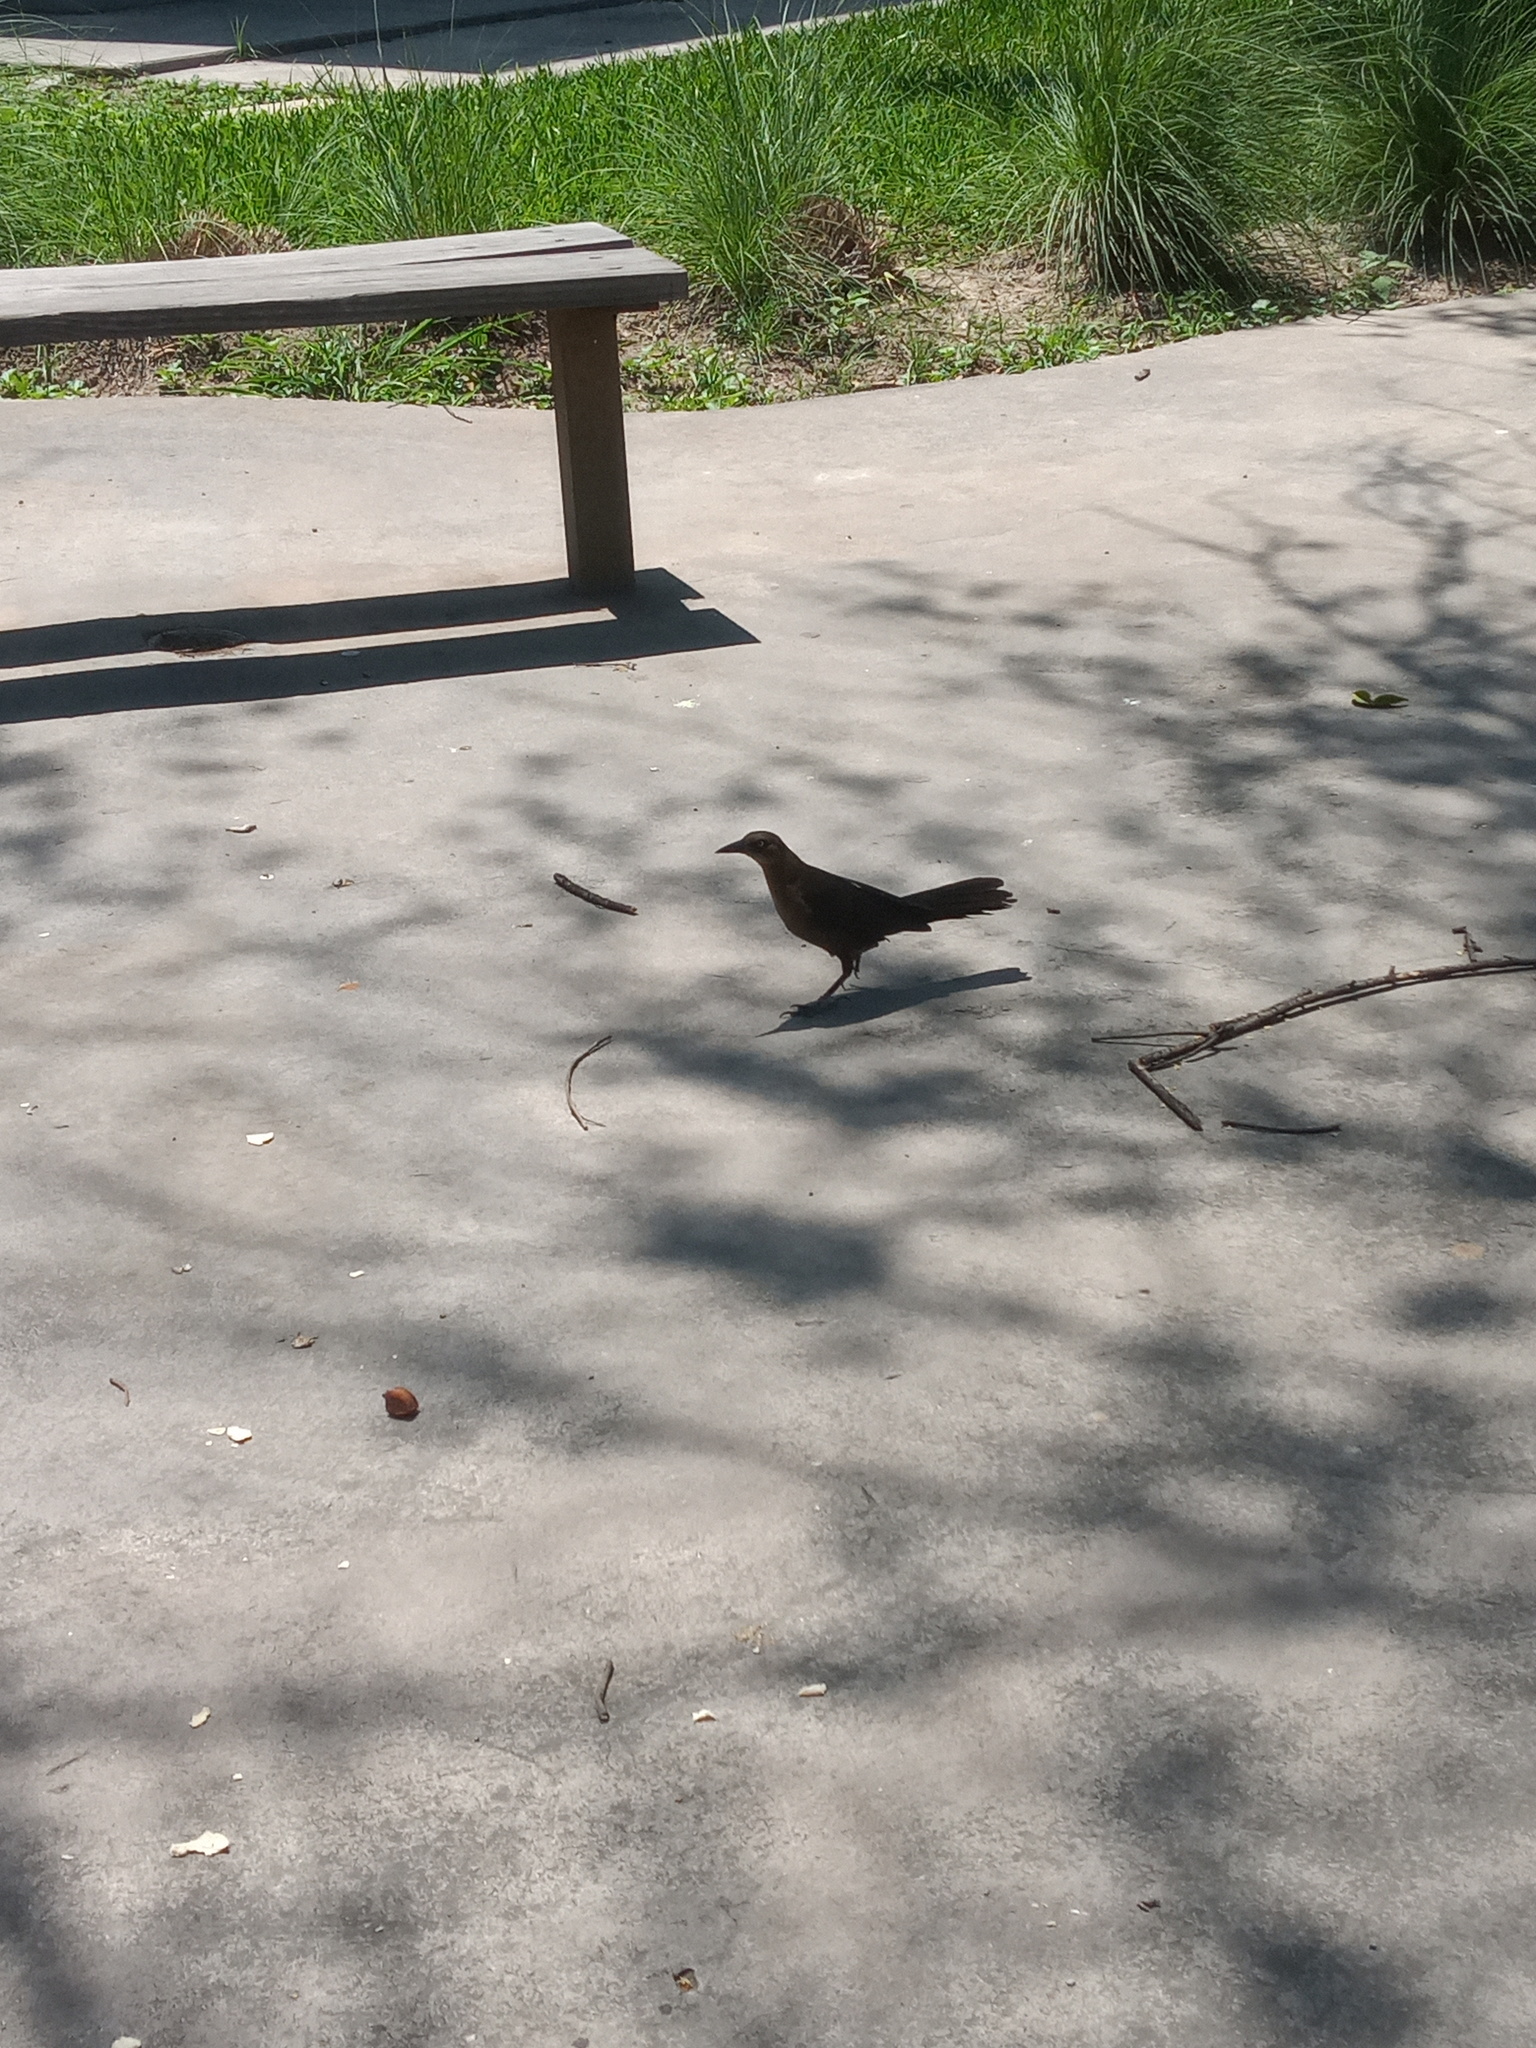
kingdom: Animalia
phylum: Chordata
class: Aves
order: Passeriformes
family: Icteridae
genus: Quiscalus
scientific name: Quiscalus mexicanus
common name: Great-tailed grackle
